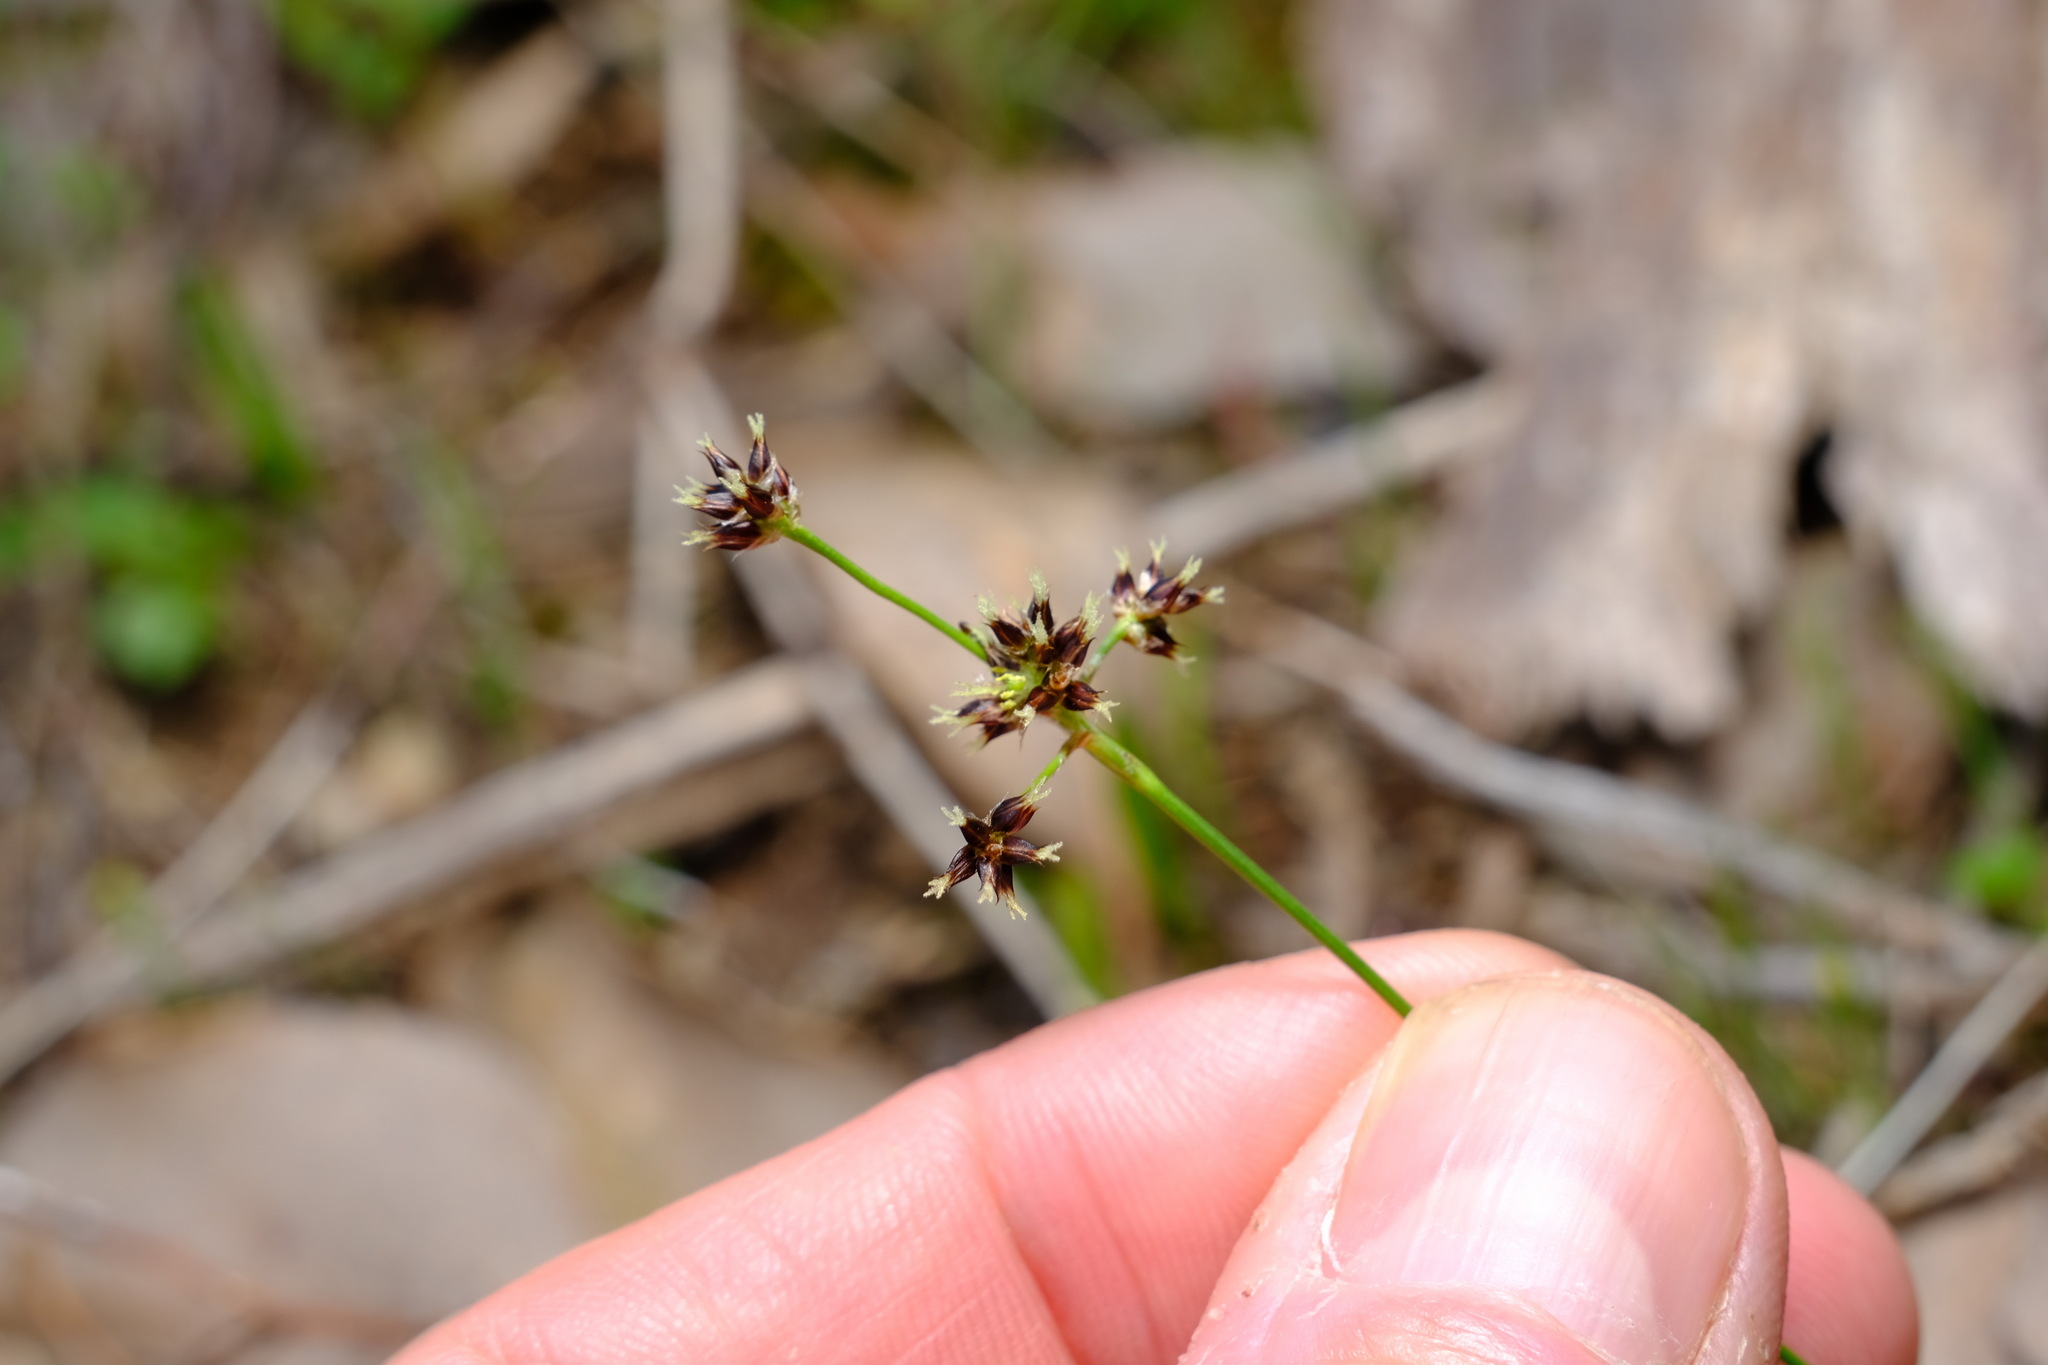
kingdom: Plantae
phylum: Tracheophyta
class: Liliopsida
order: Poales
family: Juncaceae
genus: Luzula
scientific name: Luzula meridionalis
